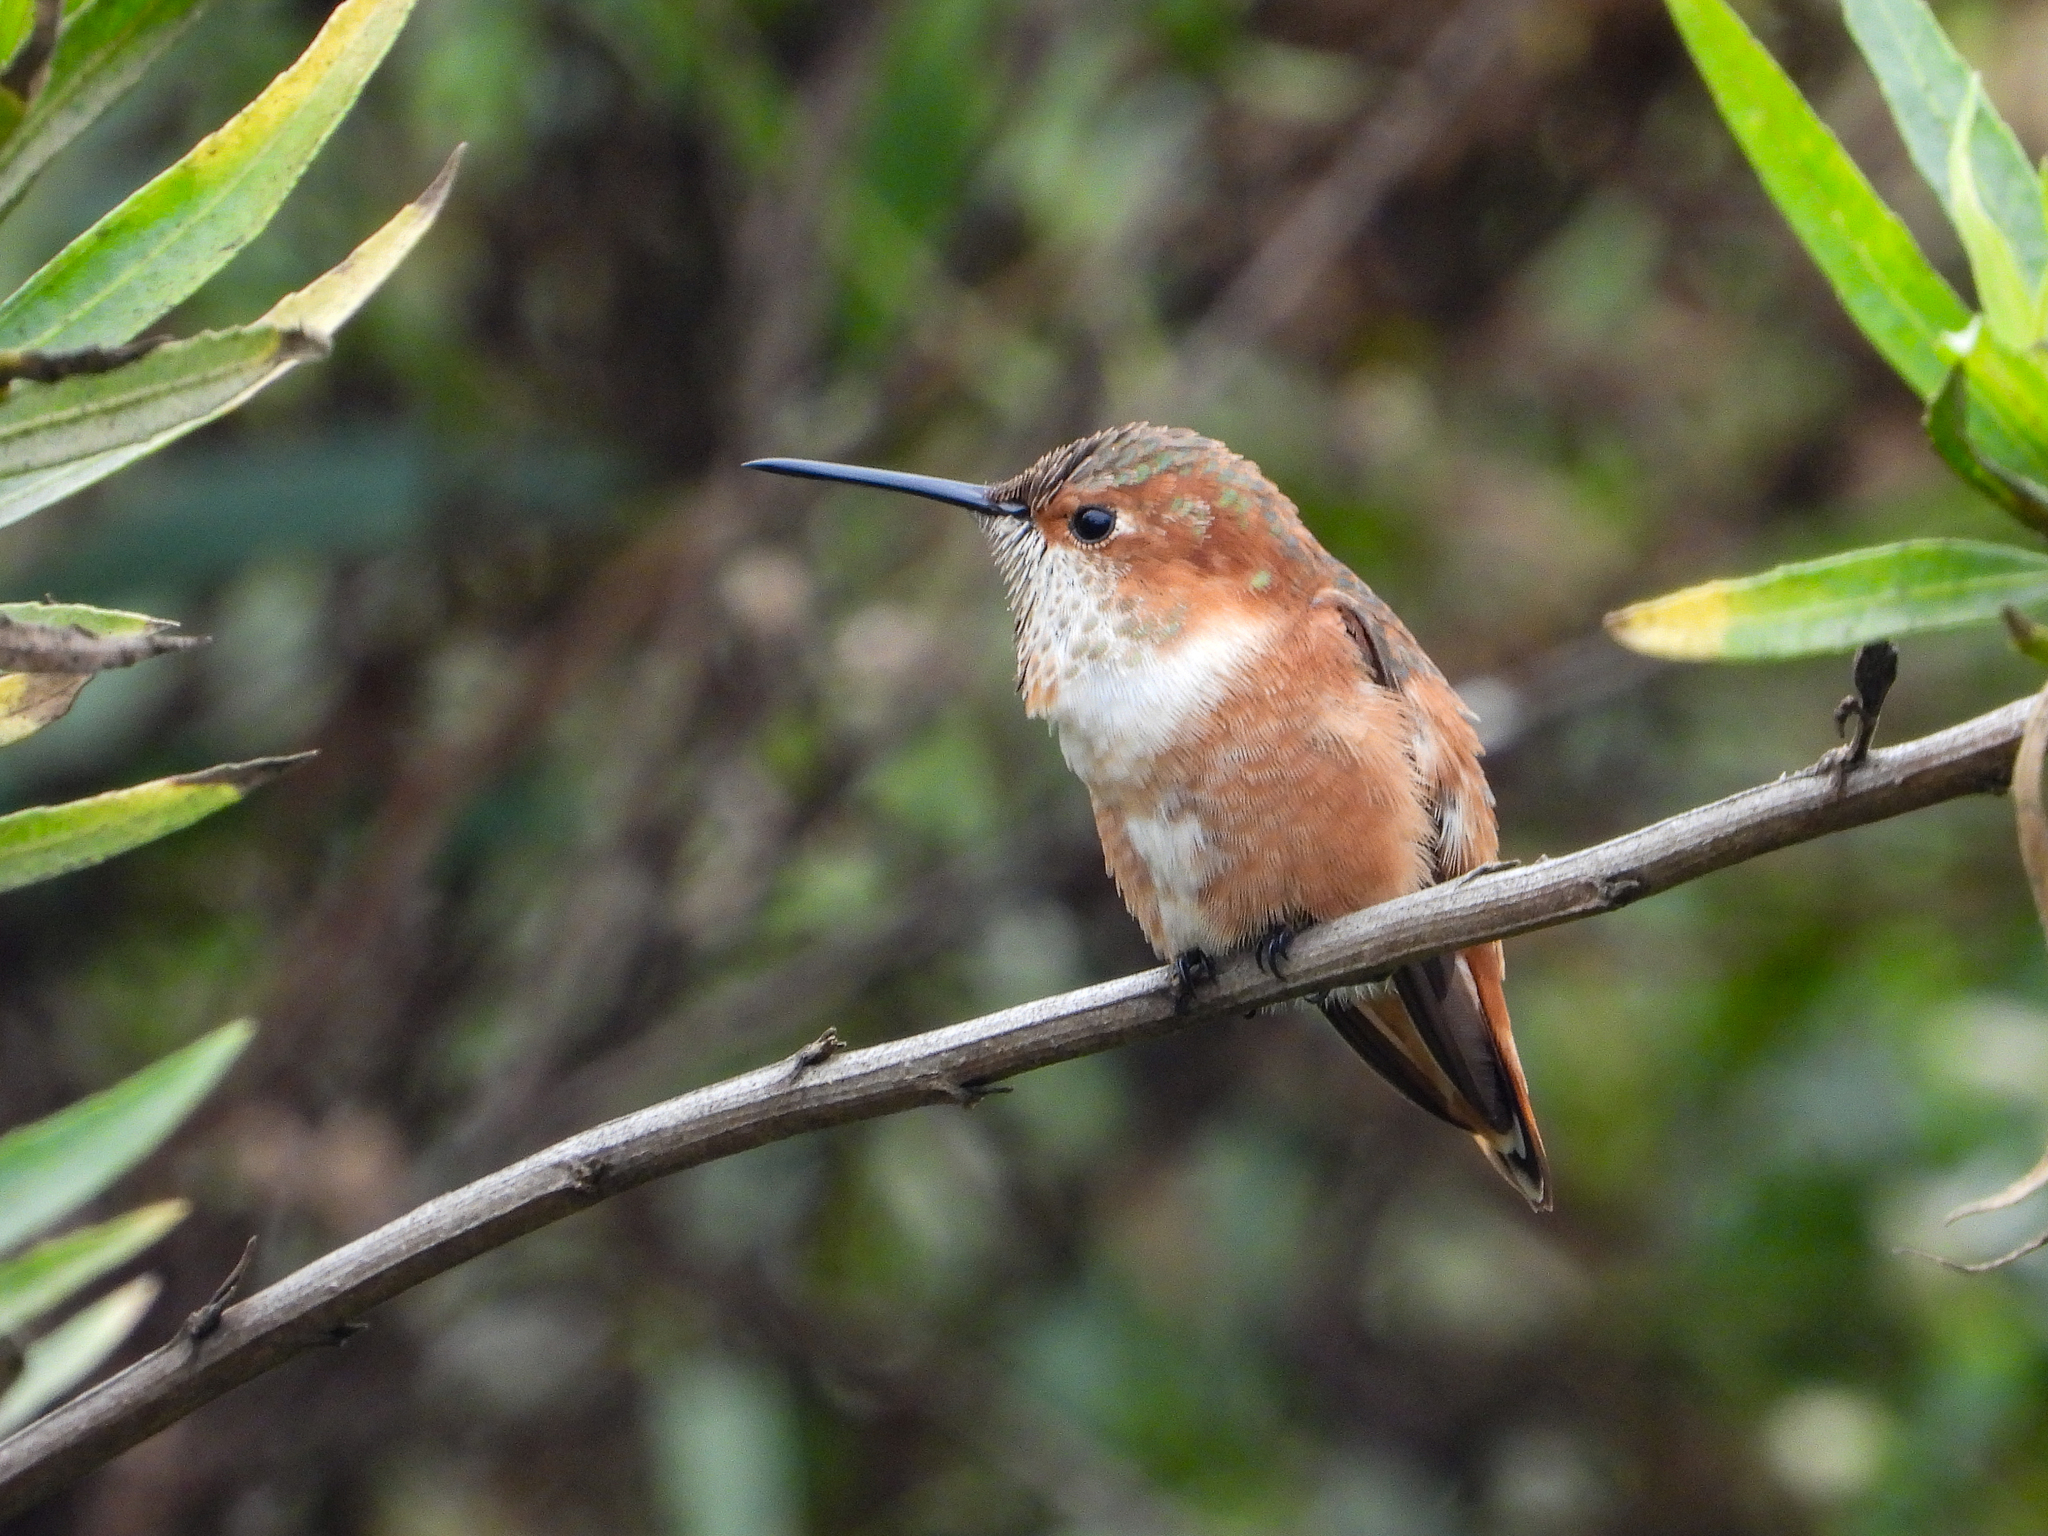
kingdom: Animalia
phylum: Chordata
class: Aves
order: Apodiformes
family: Trochilidae
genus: Selasphorus
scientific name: Selasphorus sasin
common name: Allen's hummingbird
